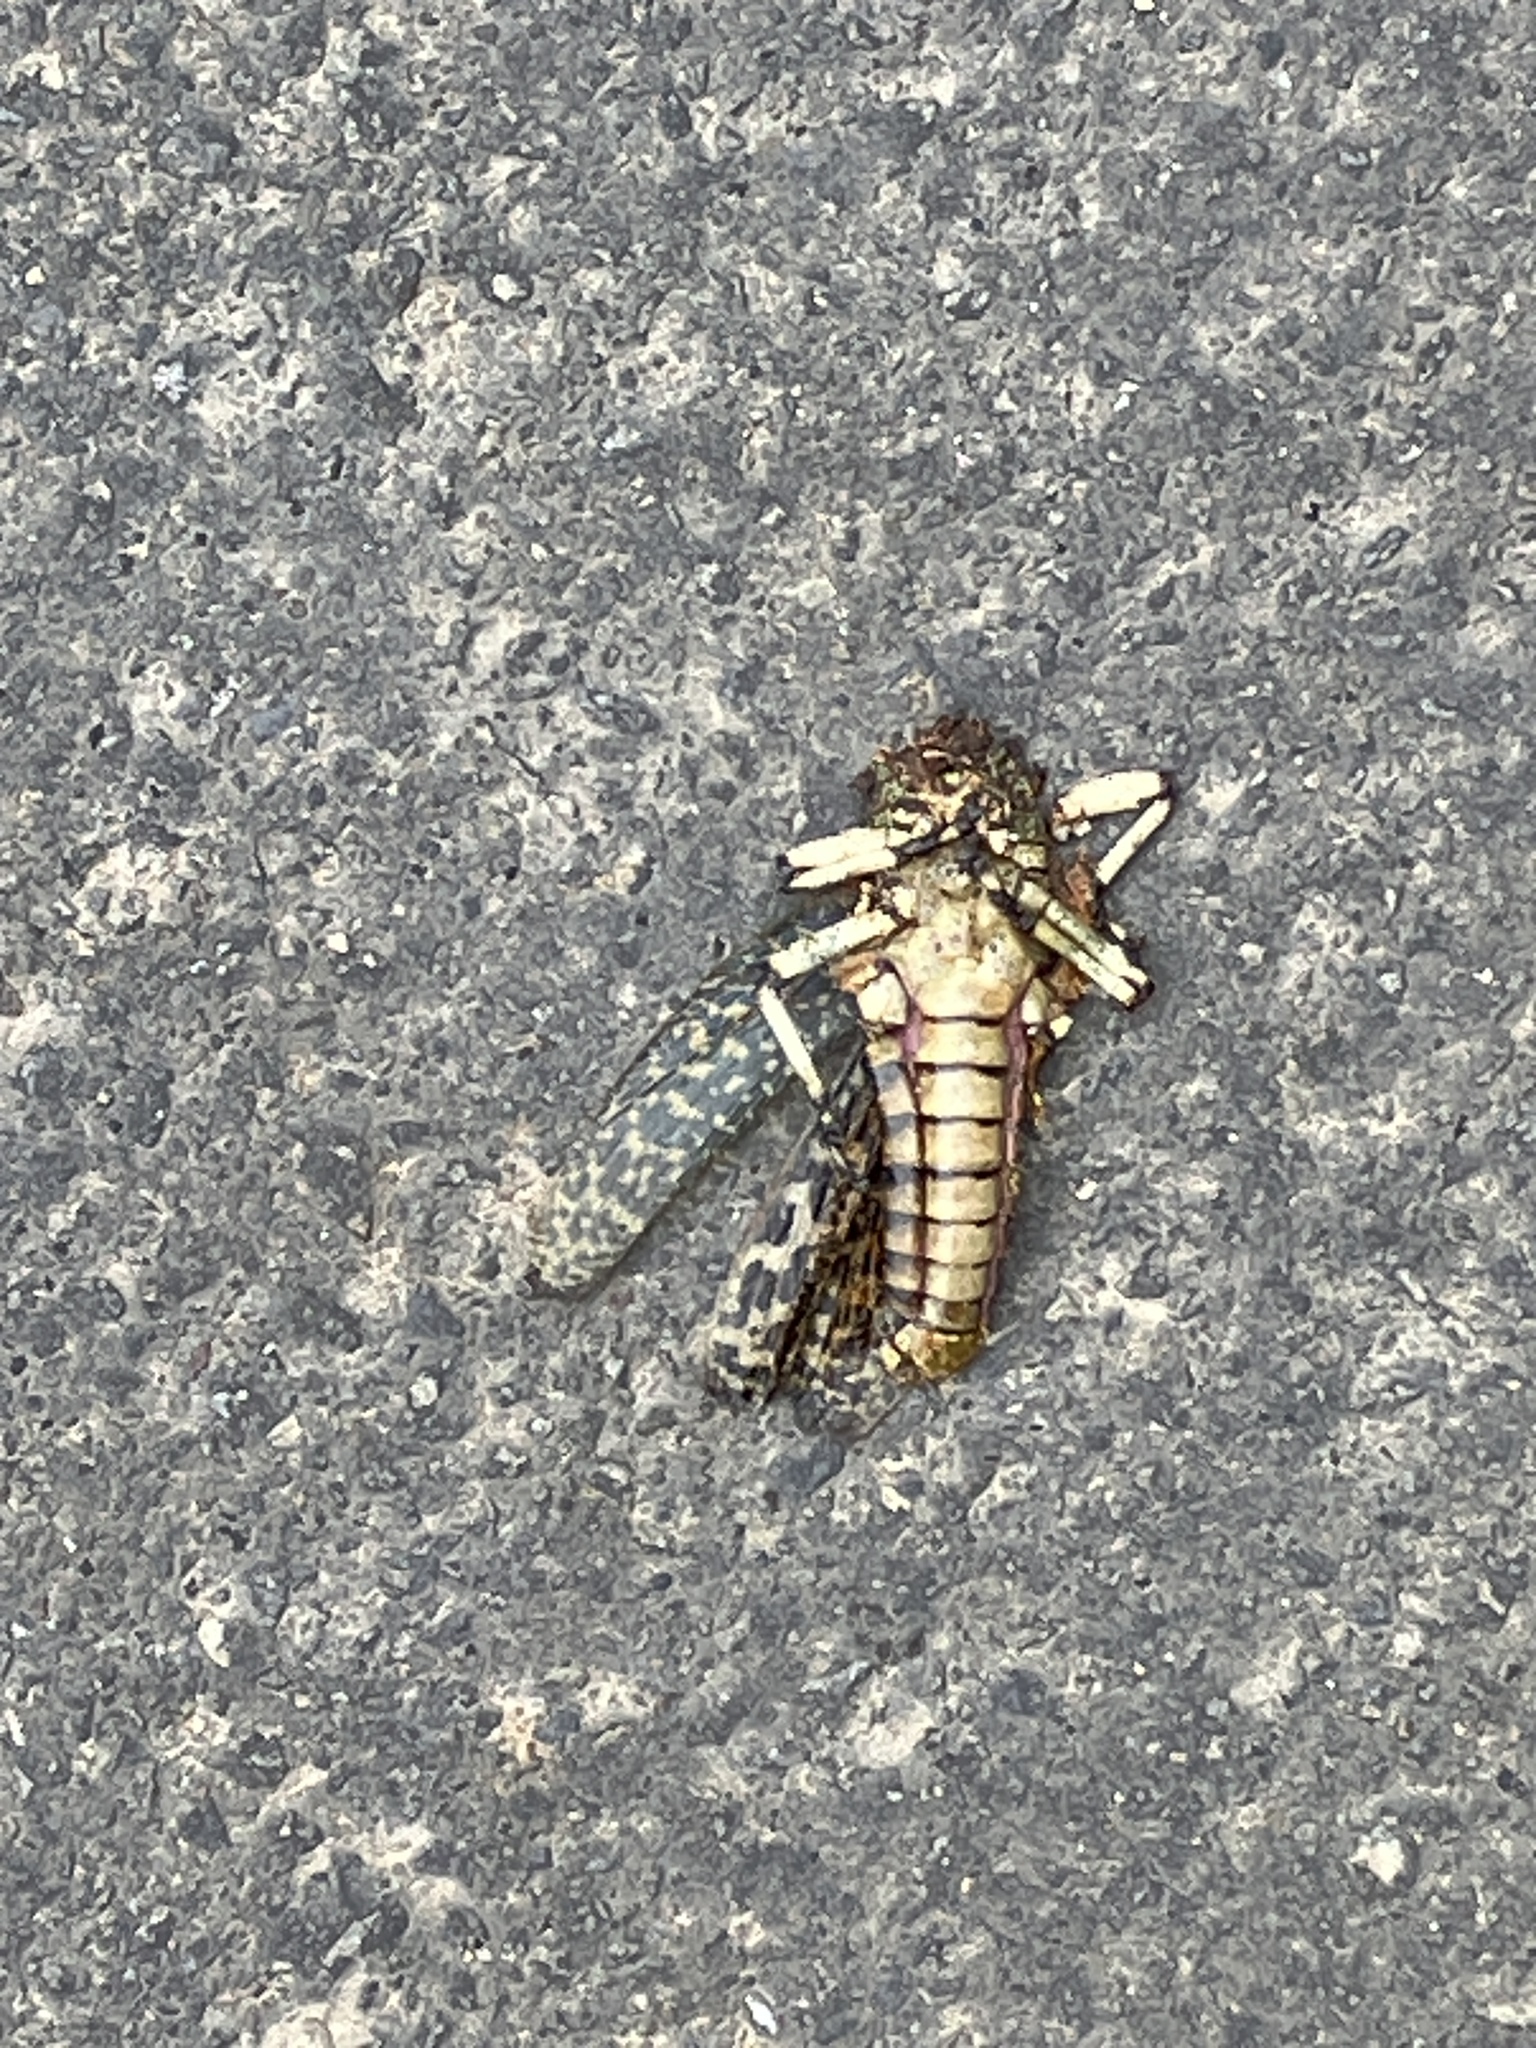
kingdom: Animalia
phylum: Arthropoda
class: Insecta
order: Orthoptera
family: Pyrgomorphidae
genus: Phymateus
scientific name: Phymateus leprosus
